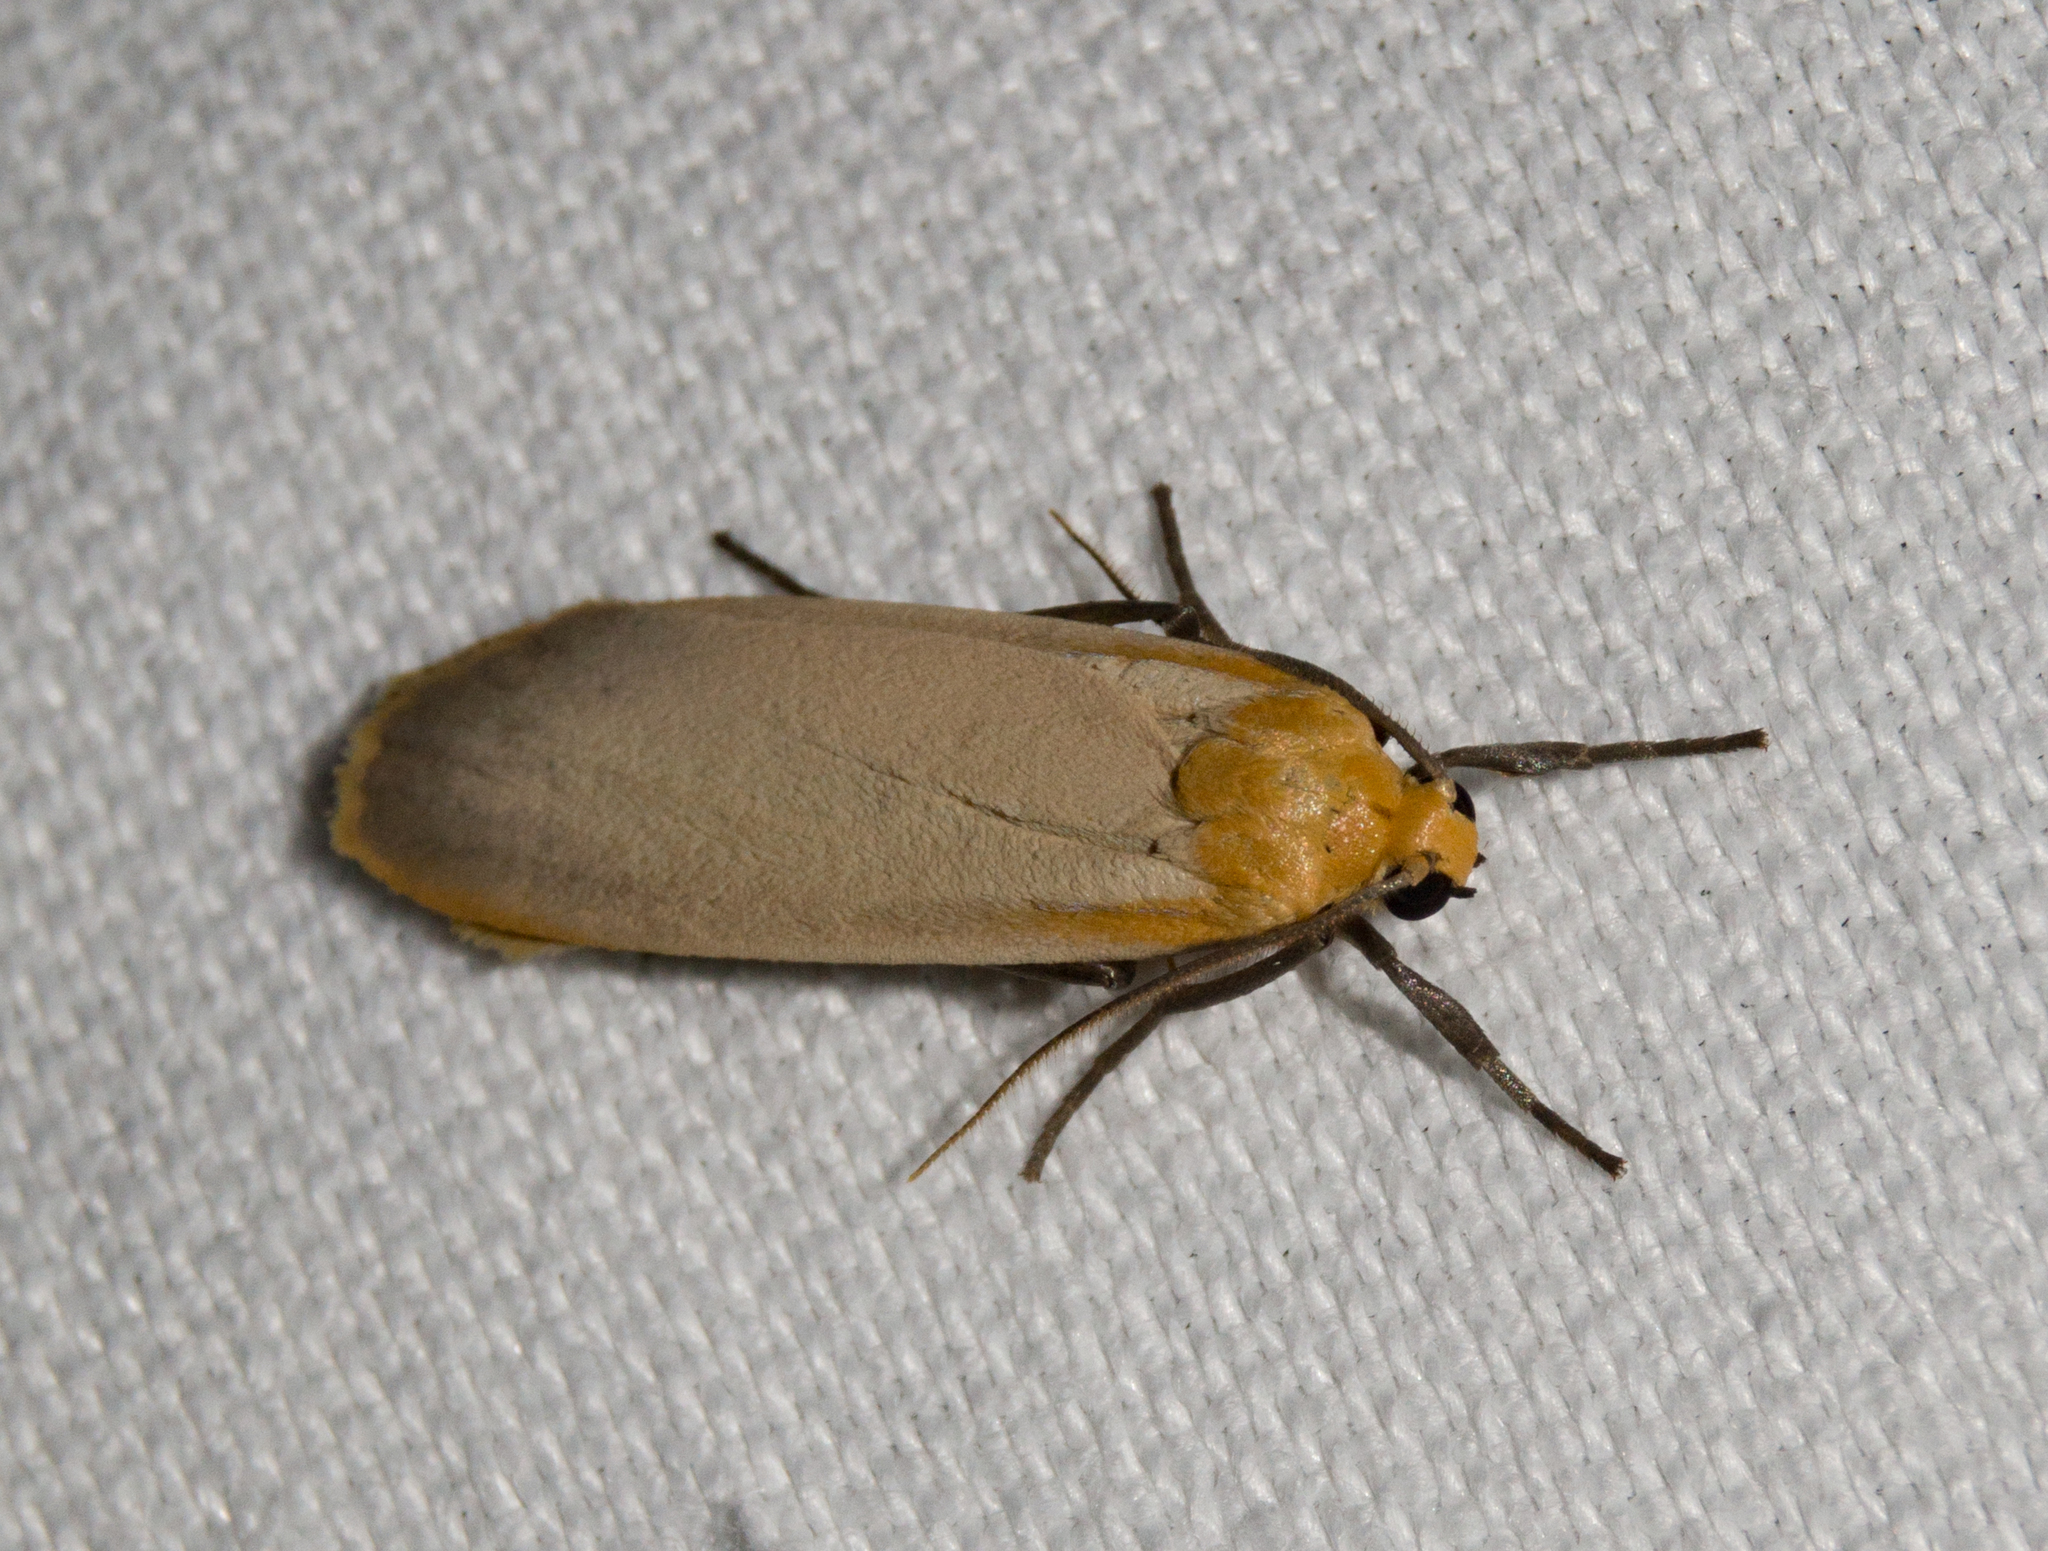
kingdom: Animalia
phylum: Arthropoda
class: Insecta
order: Lepidoptera
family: Erebidae
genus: Katha
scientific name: Katha depressa
